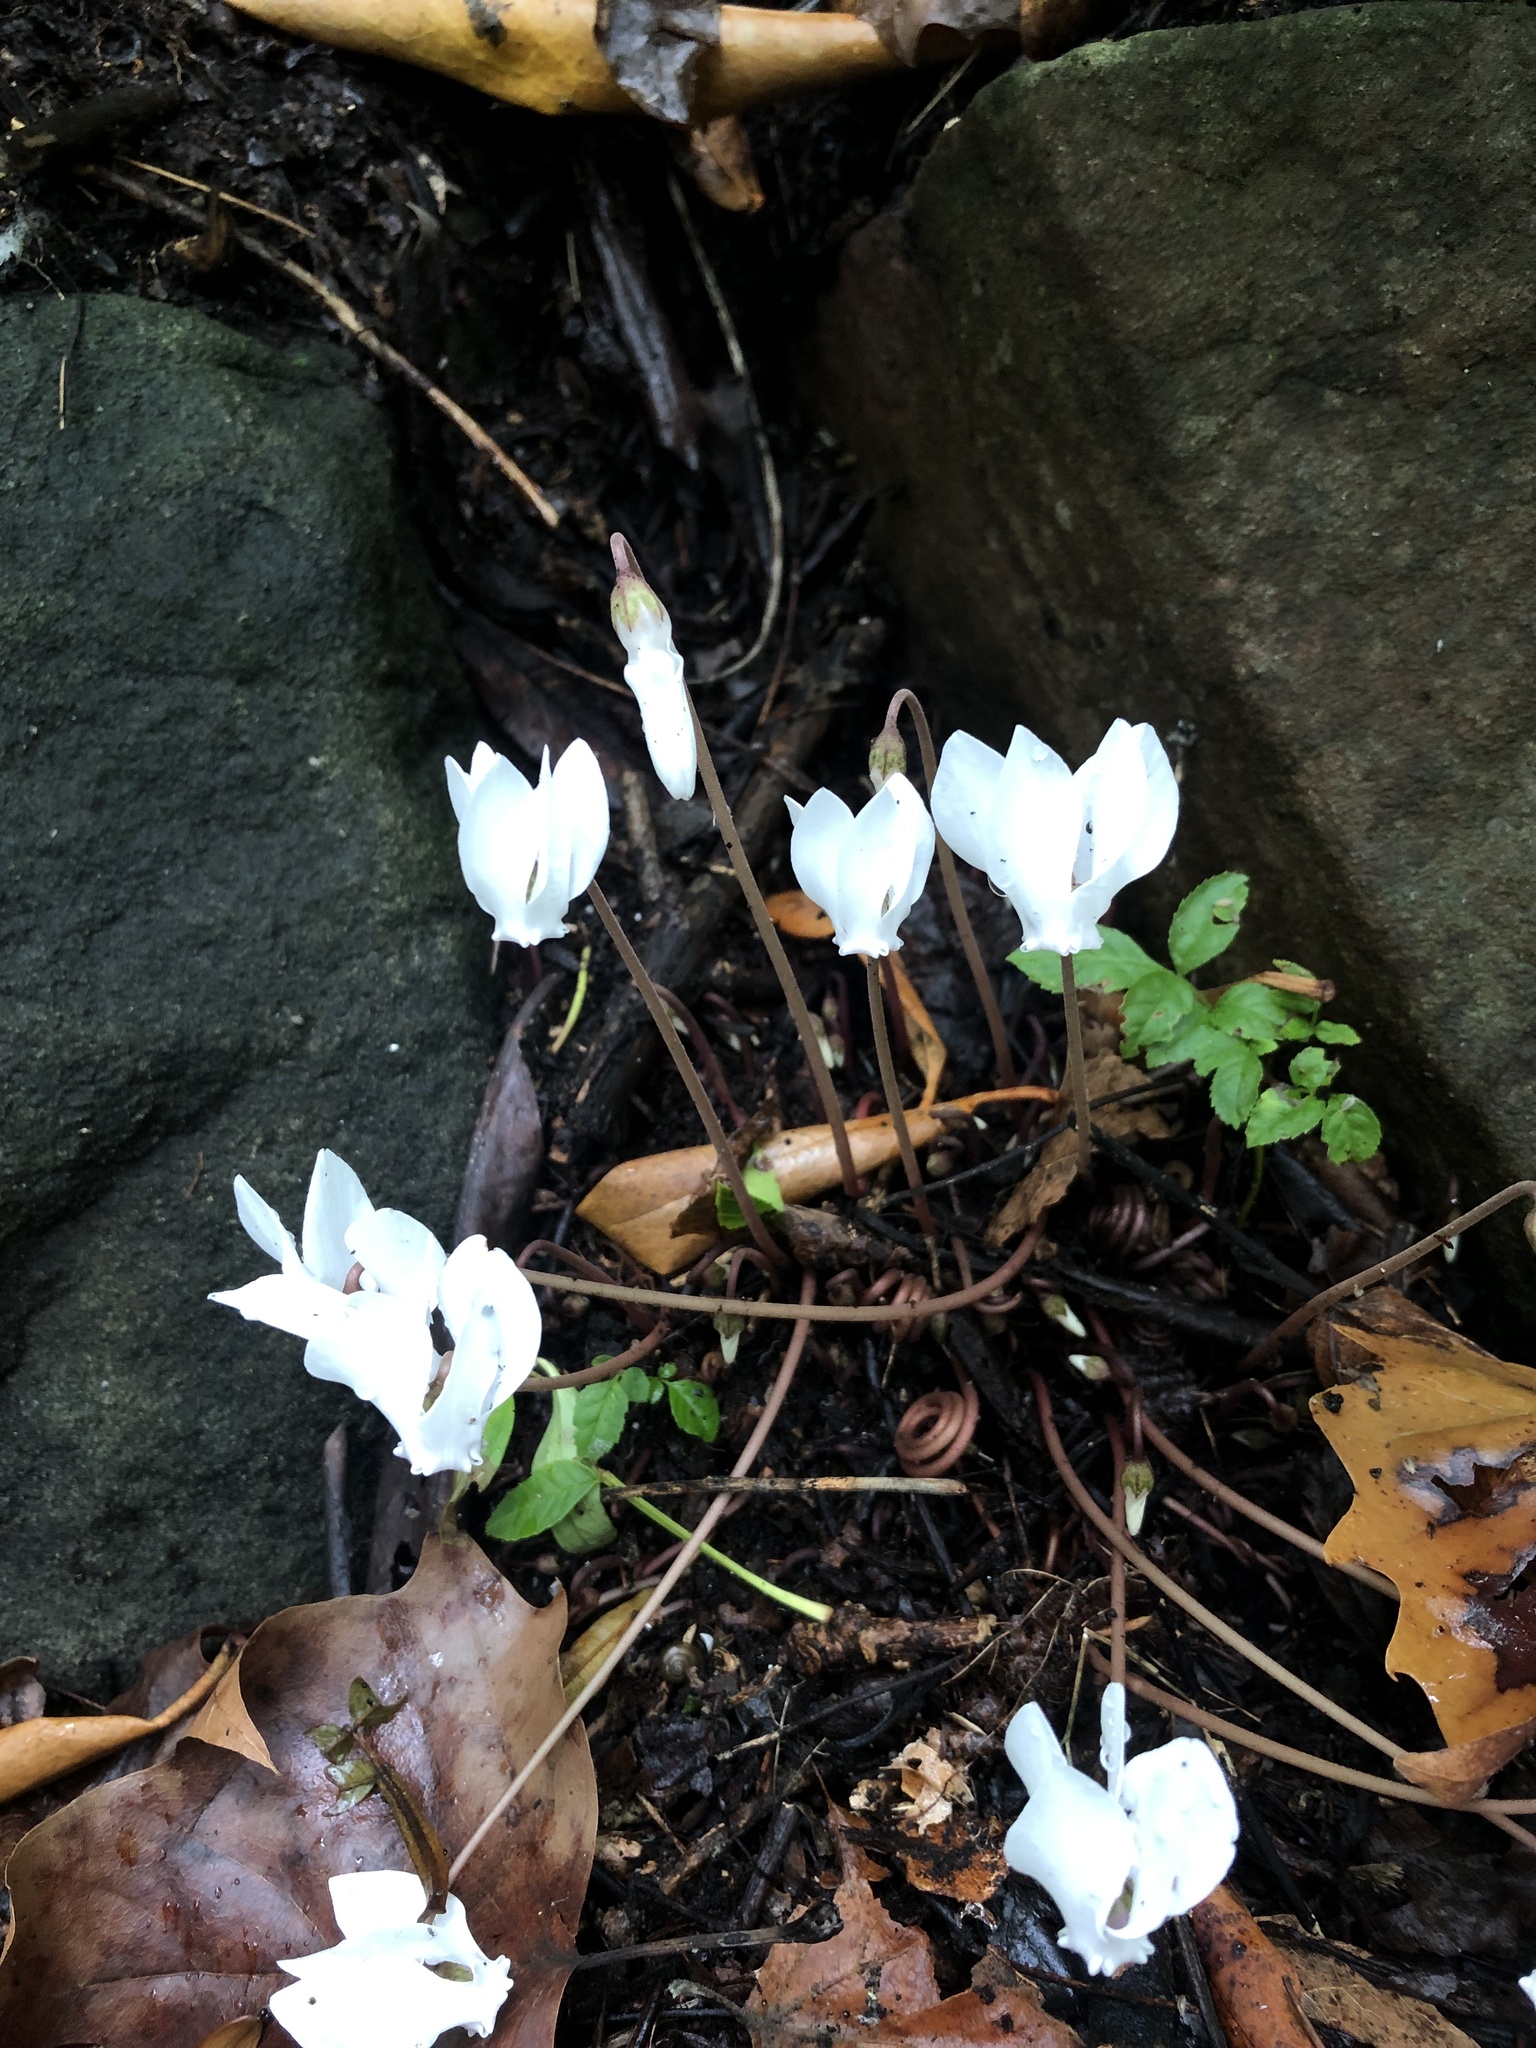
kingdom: Plantae
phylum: Tracheophyta
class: Magnoliopsida
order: Ericales
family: Primulaceae
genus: Cyclamen
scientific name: Cyclamen hederifolium
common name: Sowbread
